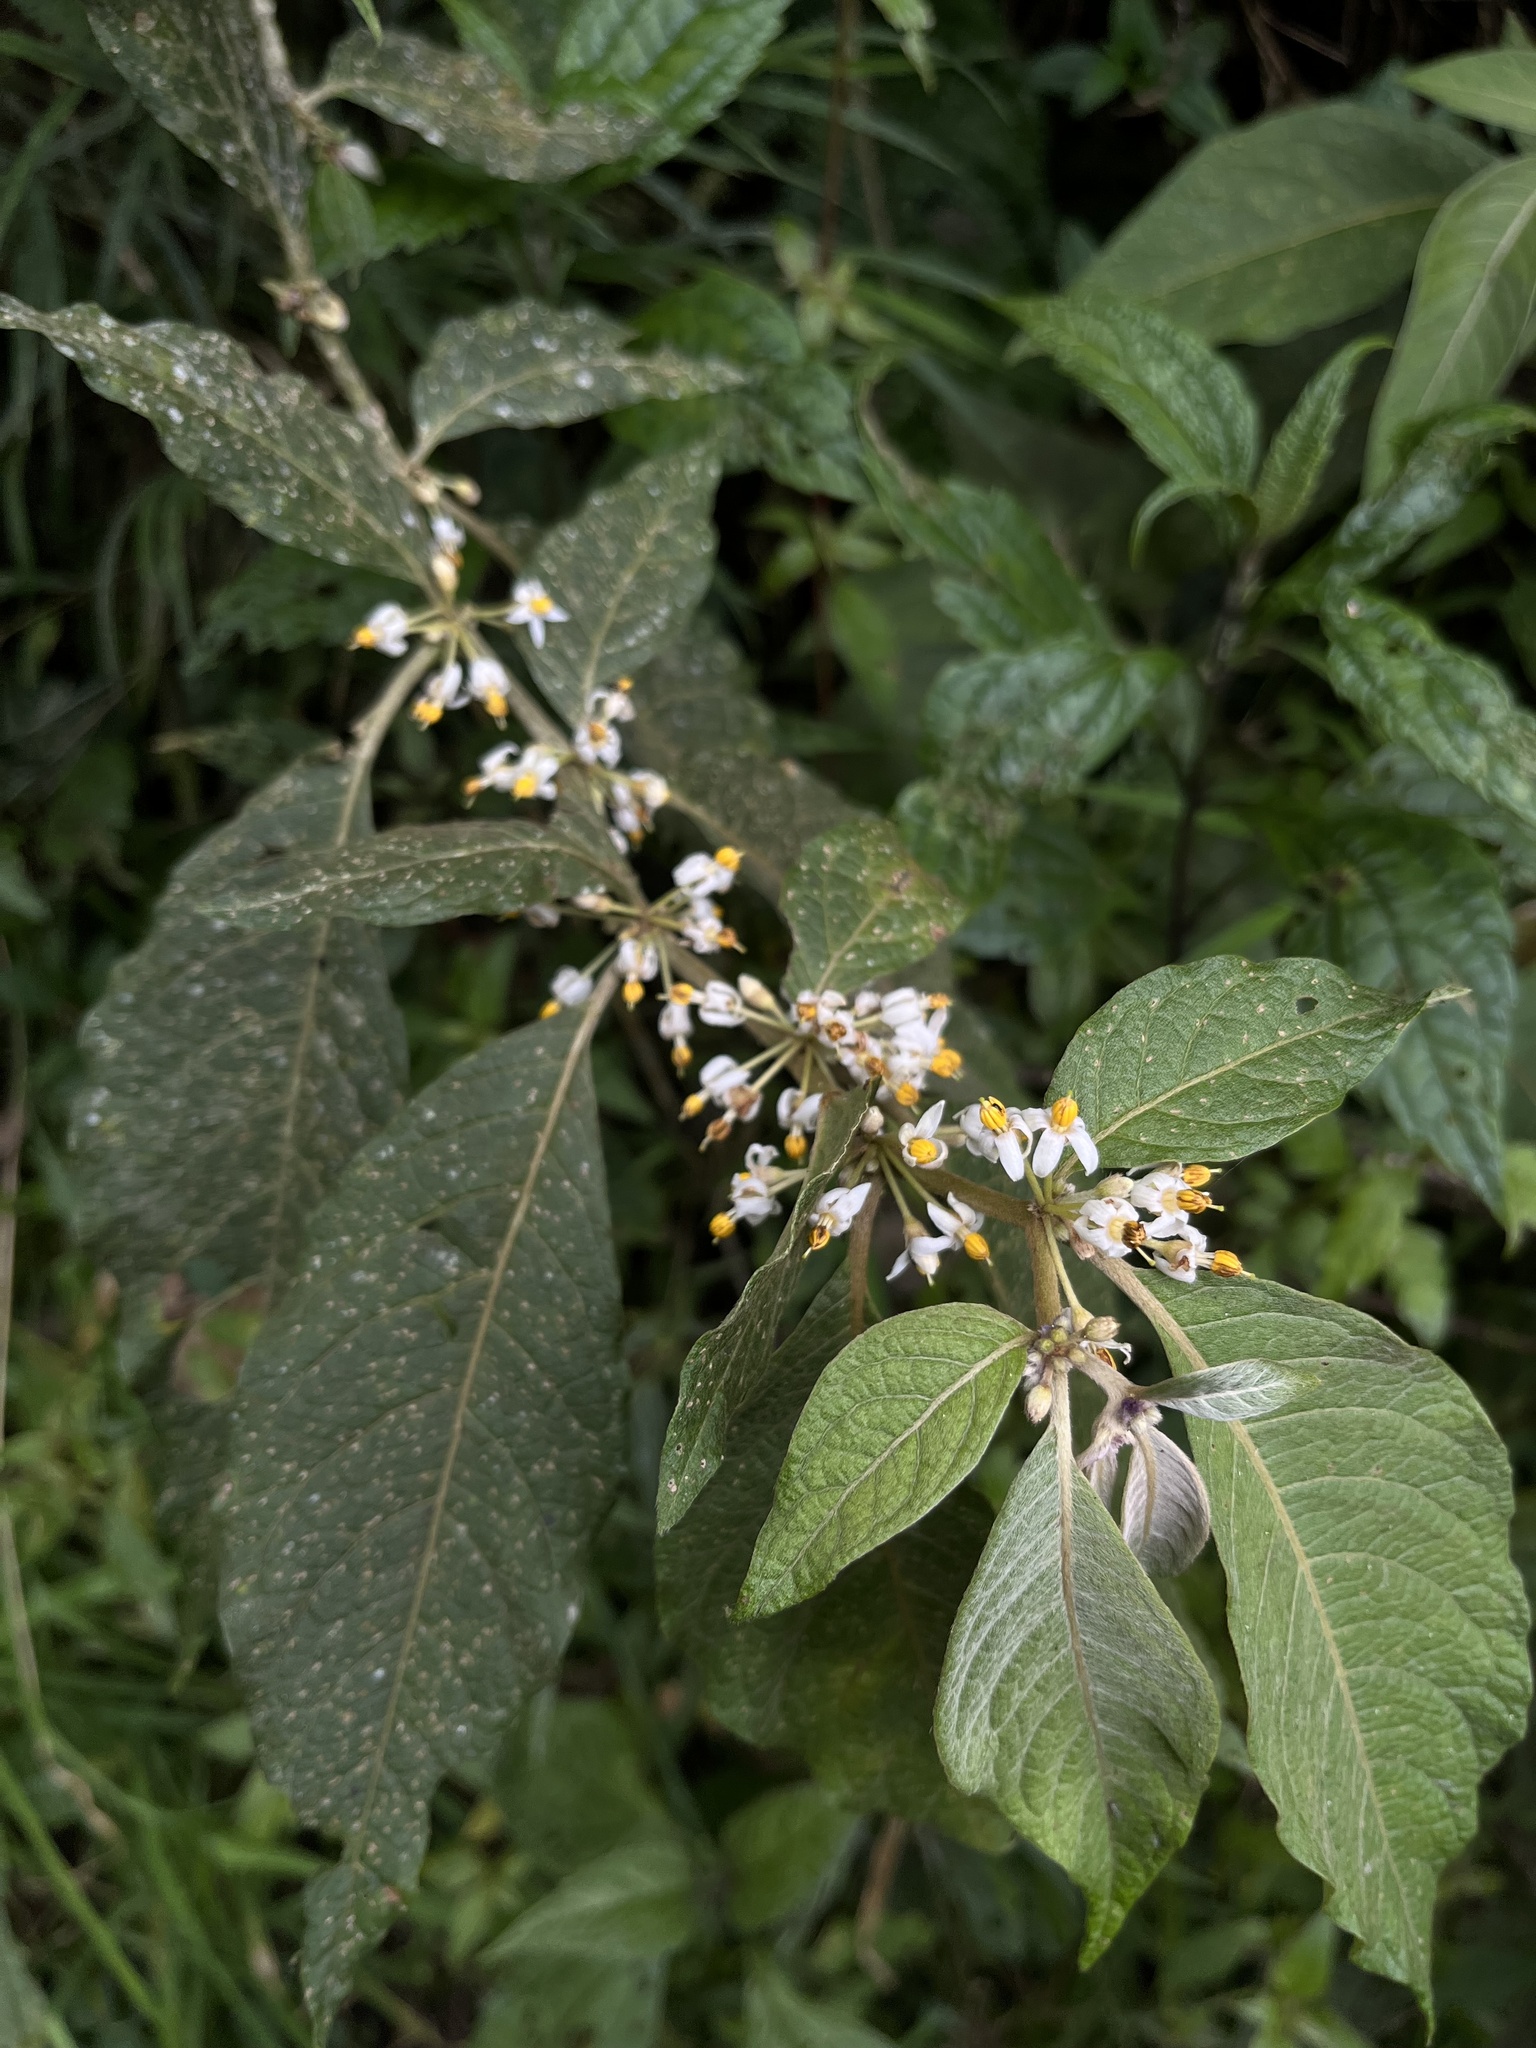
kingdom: Plantae
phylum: Tracheophyta
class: Magnoliopsida
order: Solanales
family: Solanaceae
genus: Lycianthes
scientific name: Lycianthes radiata
